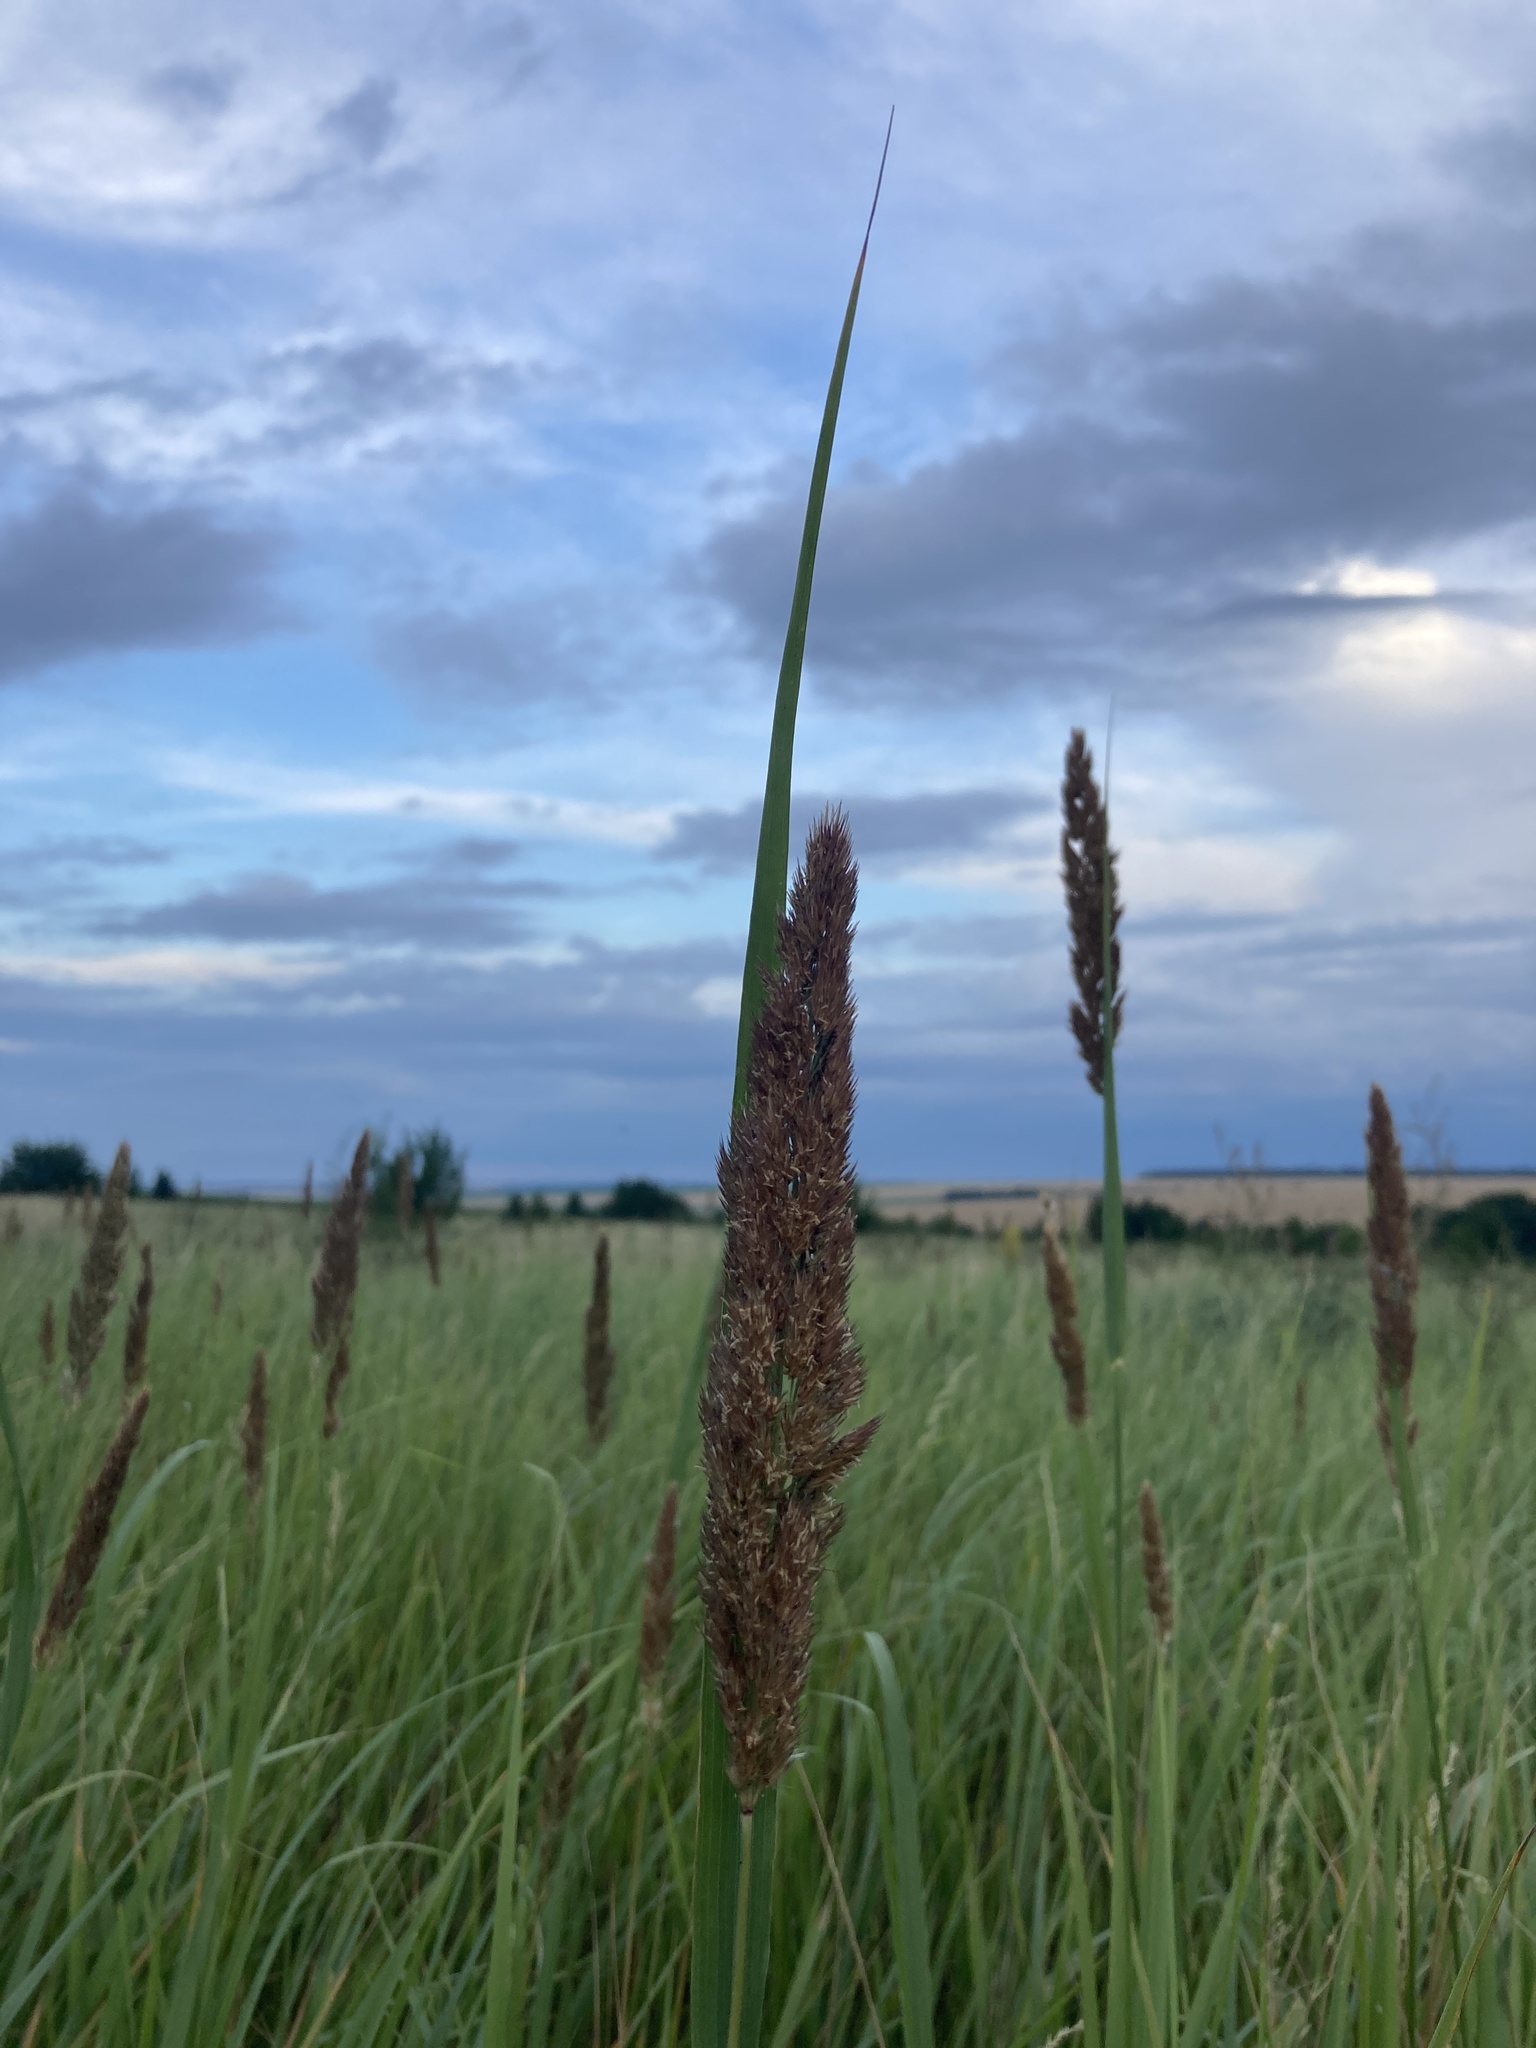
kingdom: Plantae
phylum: Tracheophyta
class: Liliopsida
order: Poales
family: Poaceae
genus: Calamagrostis
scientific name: Calamagrostis epigejos
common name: Wood small-reed
